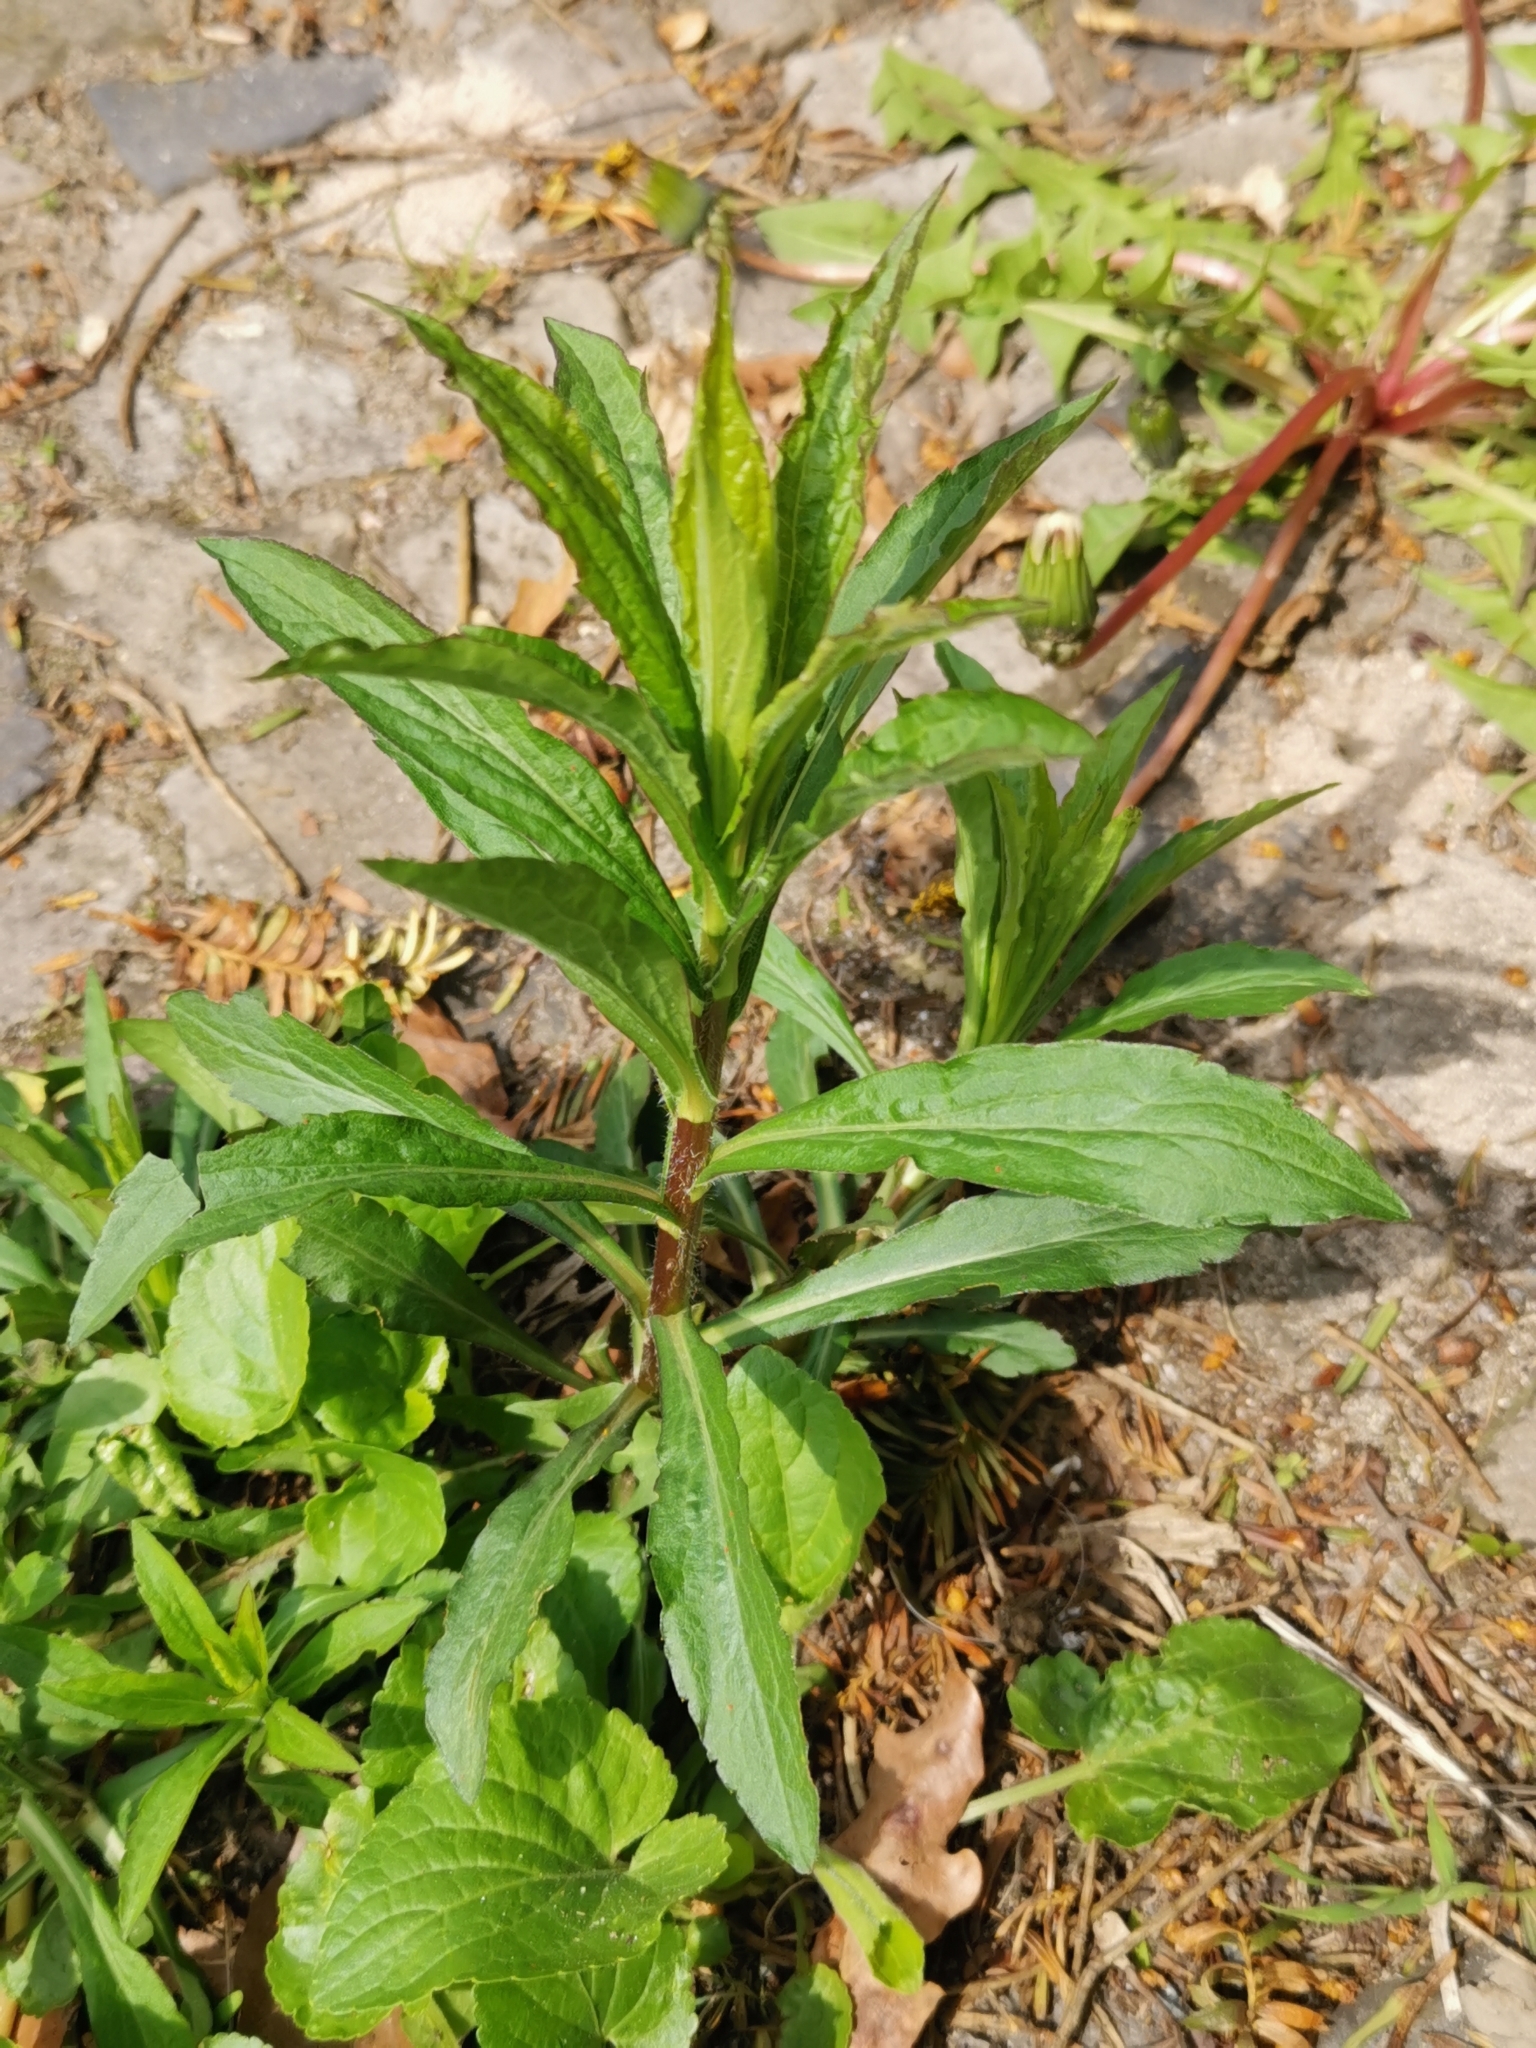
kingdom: Plantae
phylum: Tracheophyta
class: Magnoliopsida
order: Asterales
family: Asteraceae
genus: Solidago
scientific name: Solidago canadensis
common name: Canada goldenrod
